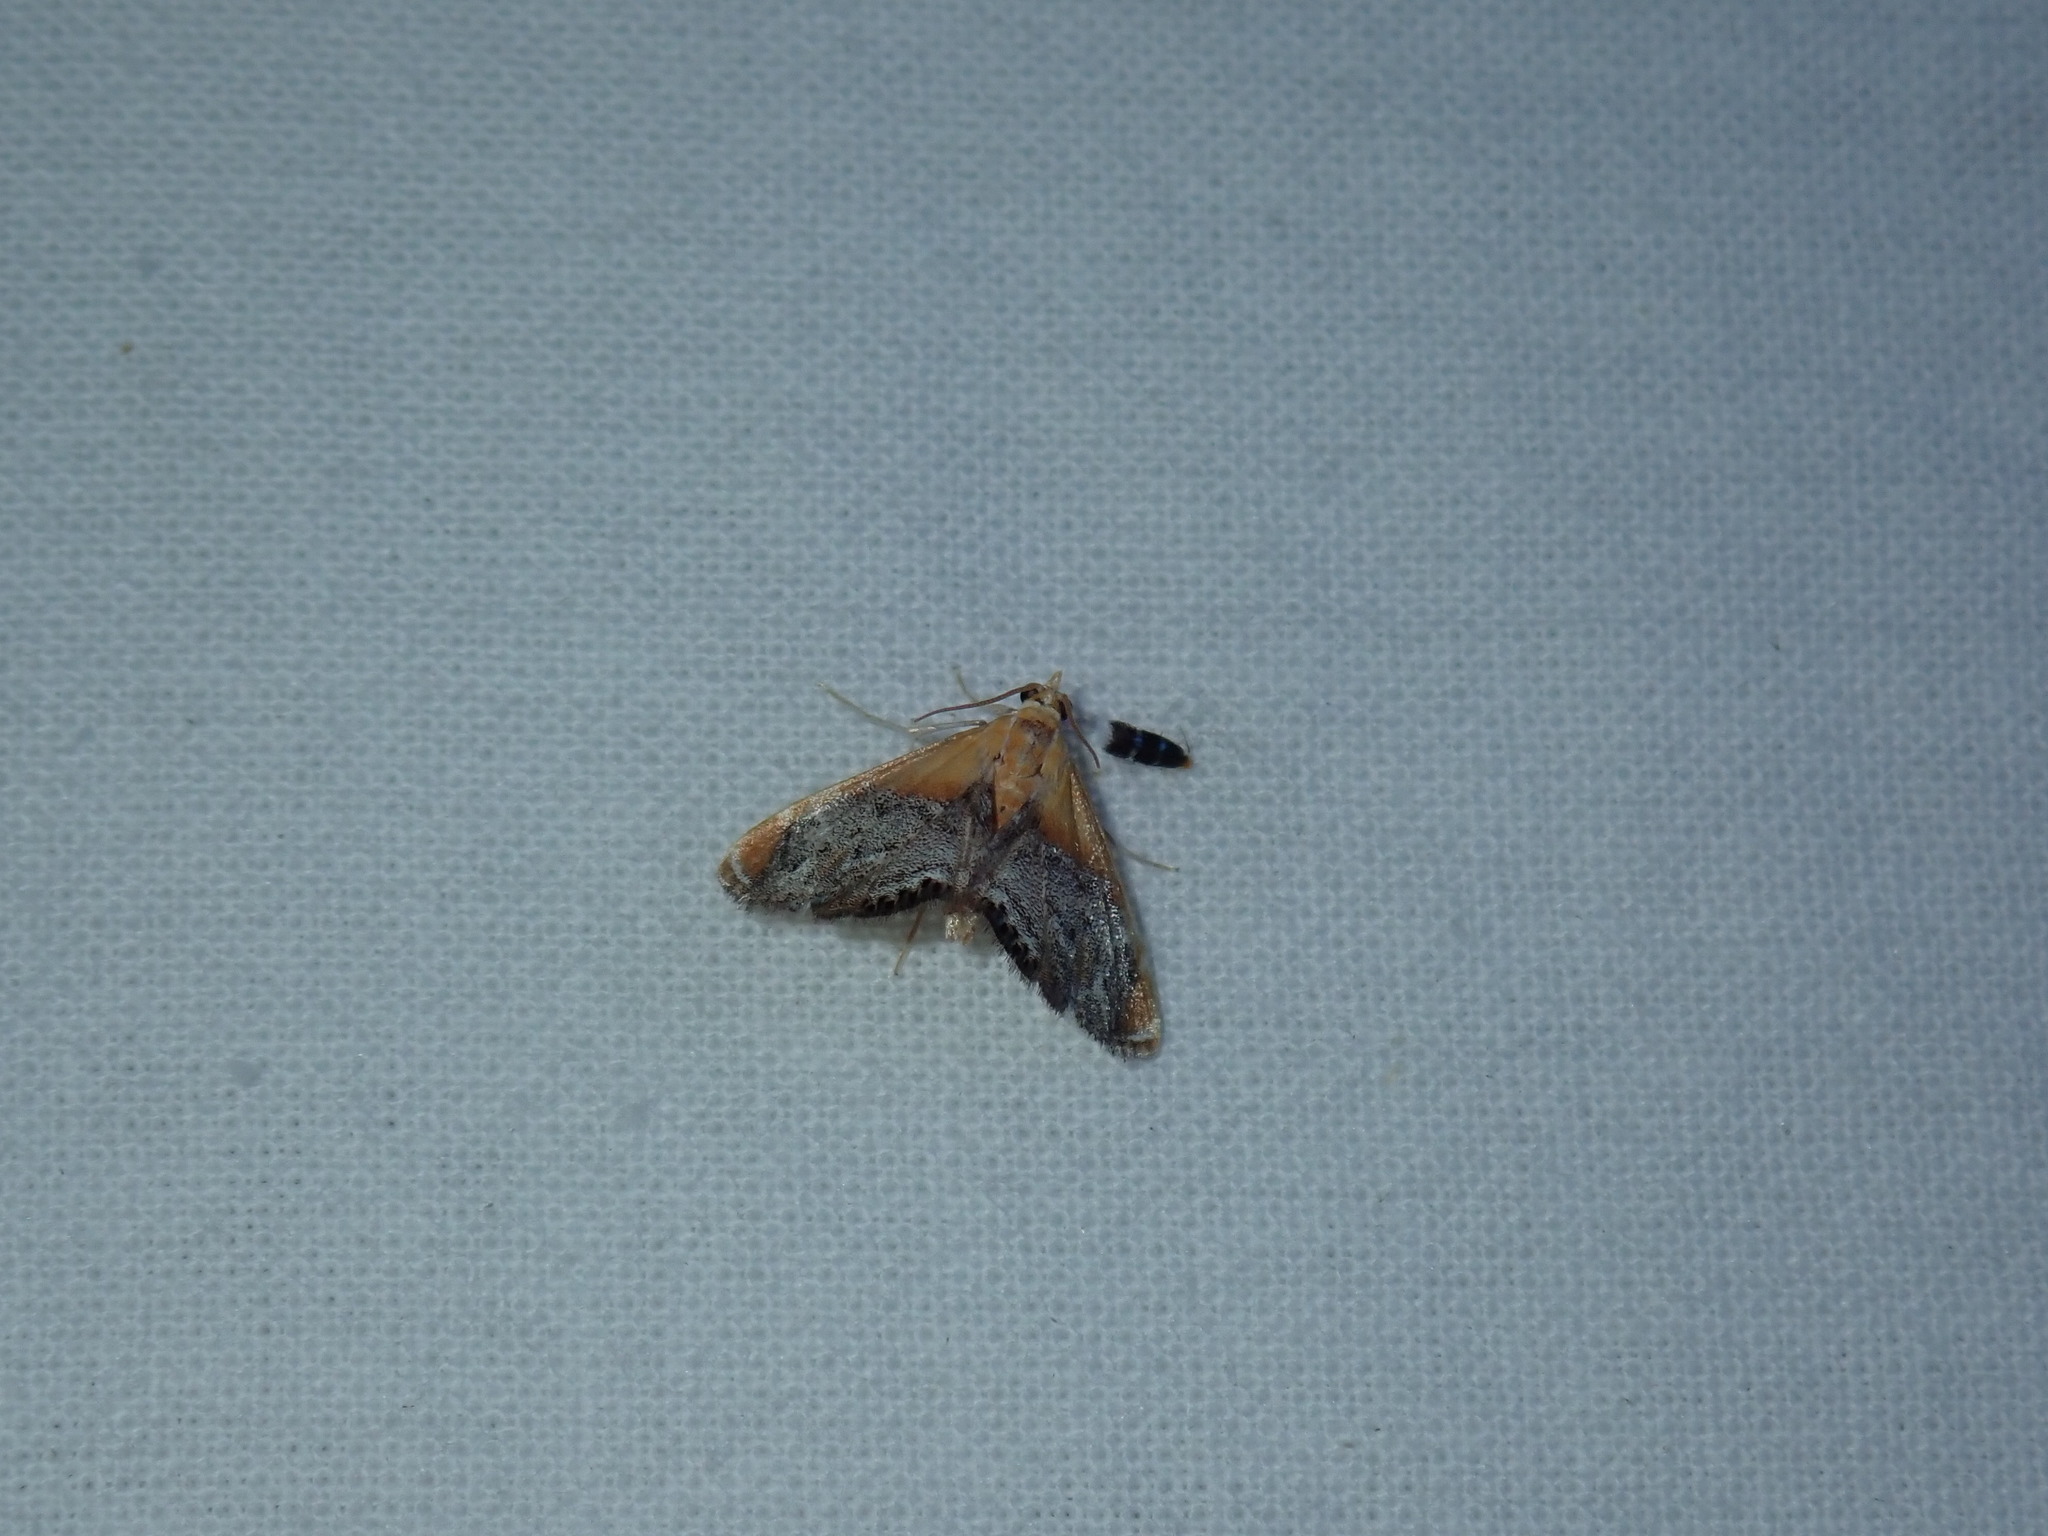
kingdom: Animalia
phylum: Arthropoda
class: Insecta
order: Lepidoptera
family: Crambidae
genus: Chalcoela
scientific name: Chalcoela iphitalis
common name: Sooty-winged chalcoela moth
